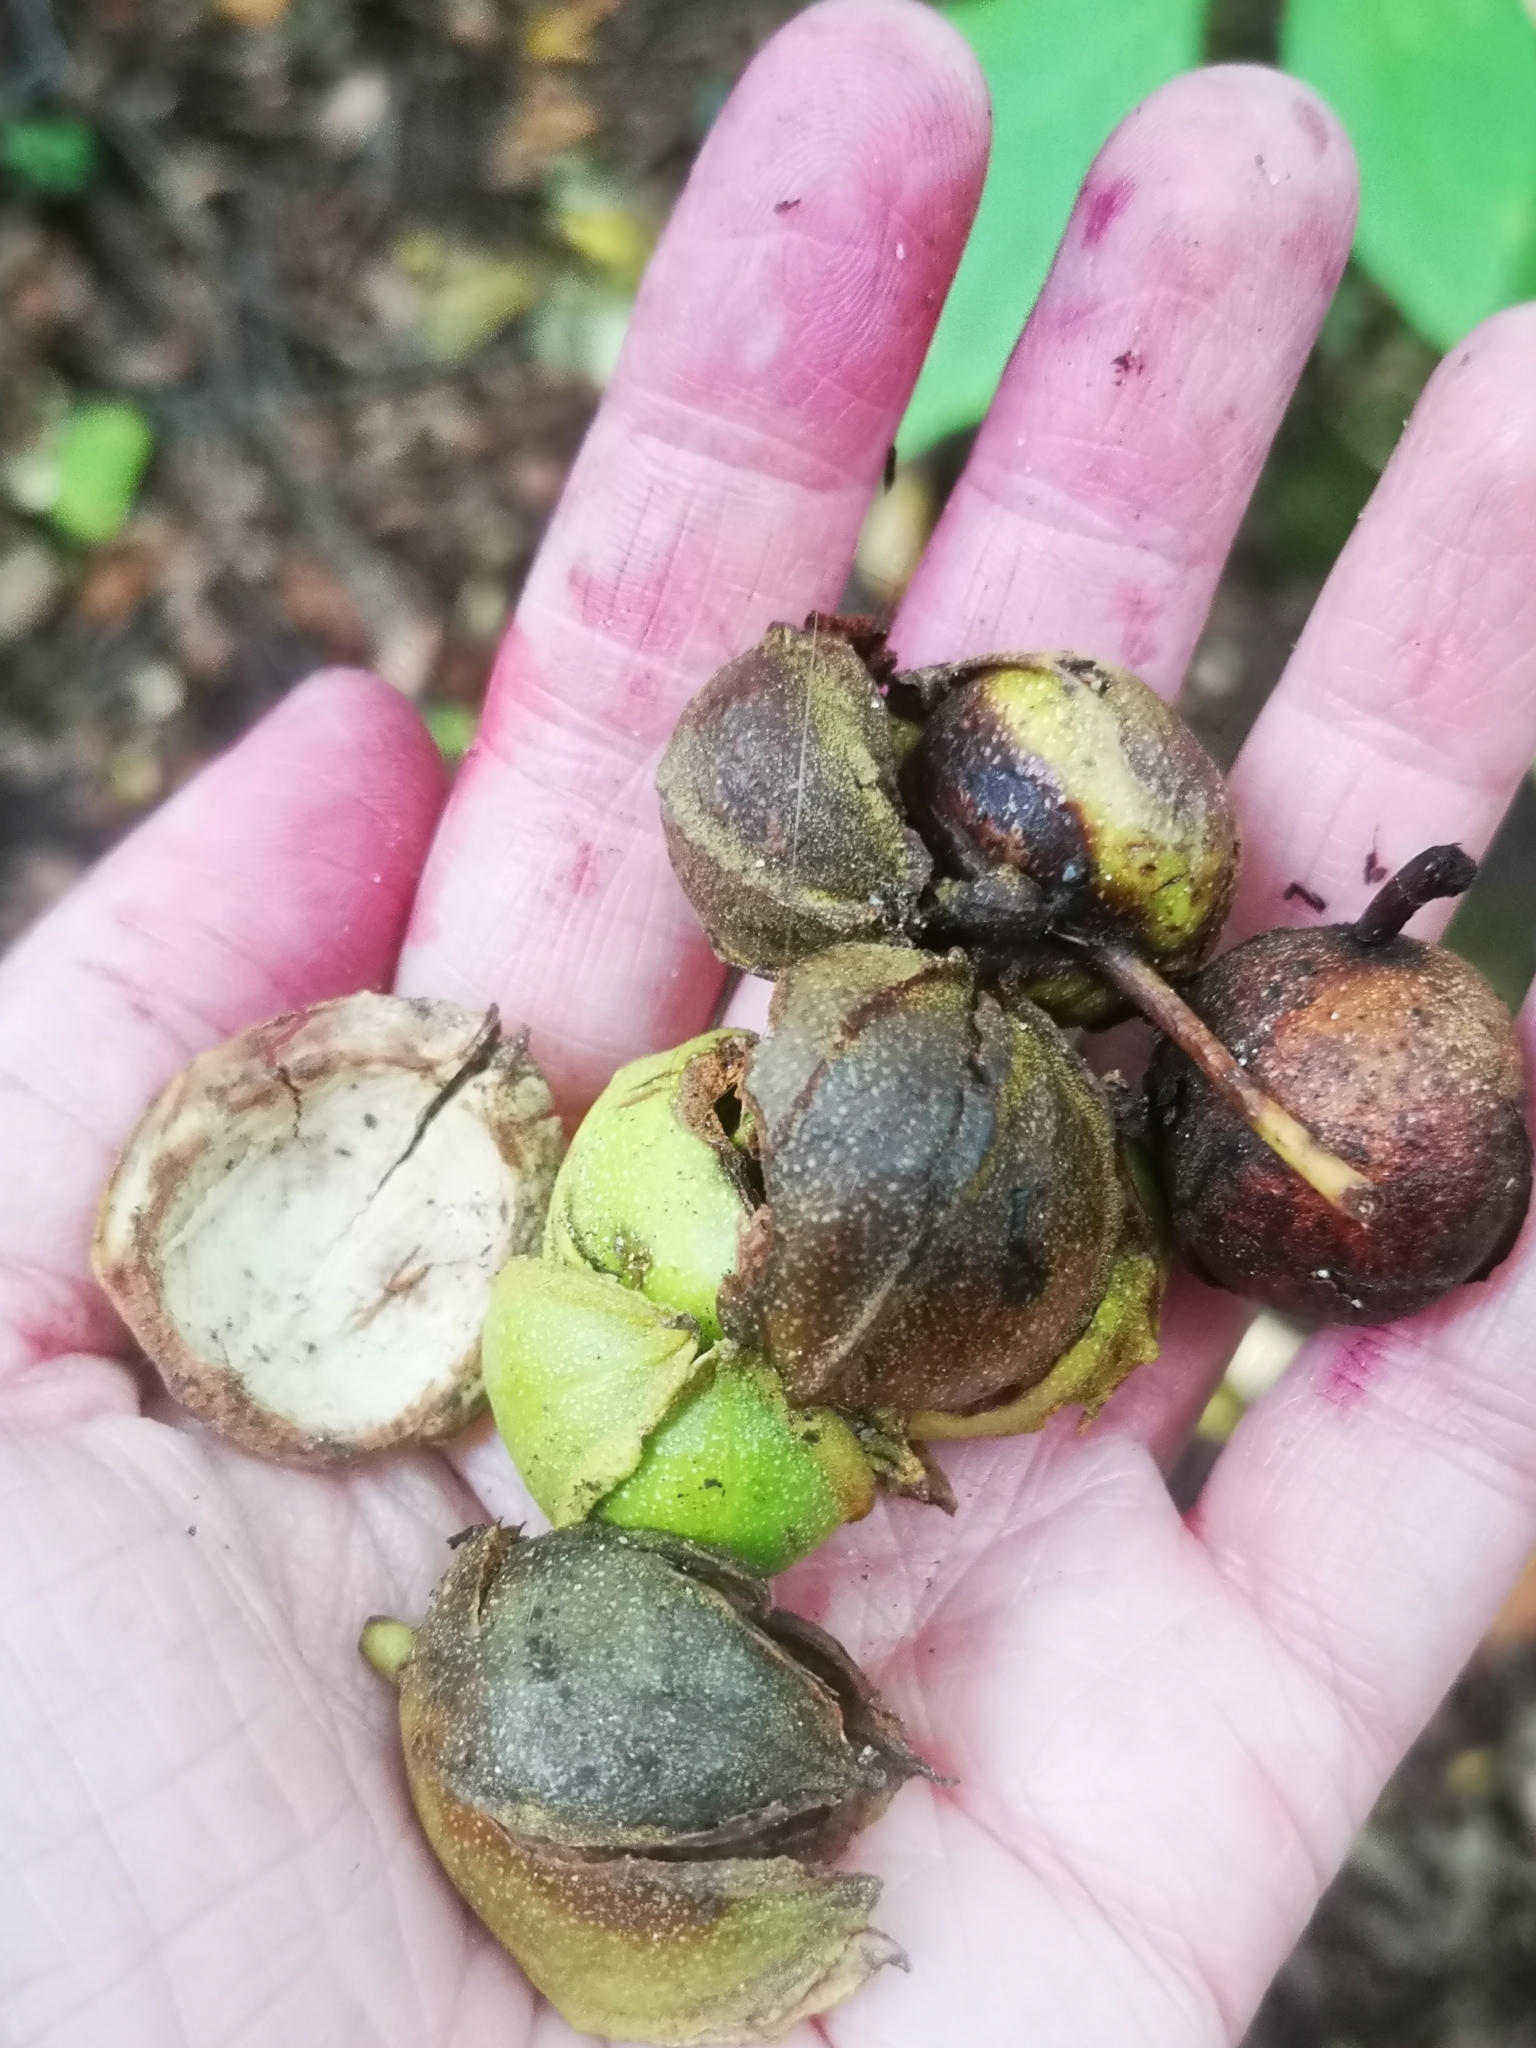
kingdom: Plantae
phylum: Tracheophyta
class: Magnoliopsida
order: Fagales
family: Juglandaceae
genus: Carya
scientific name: Carya cordiformis
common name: Bitternut hickory
